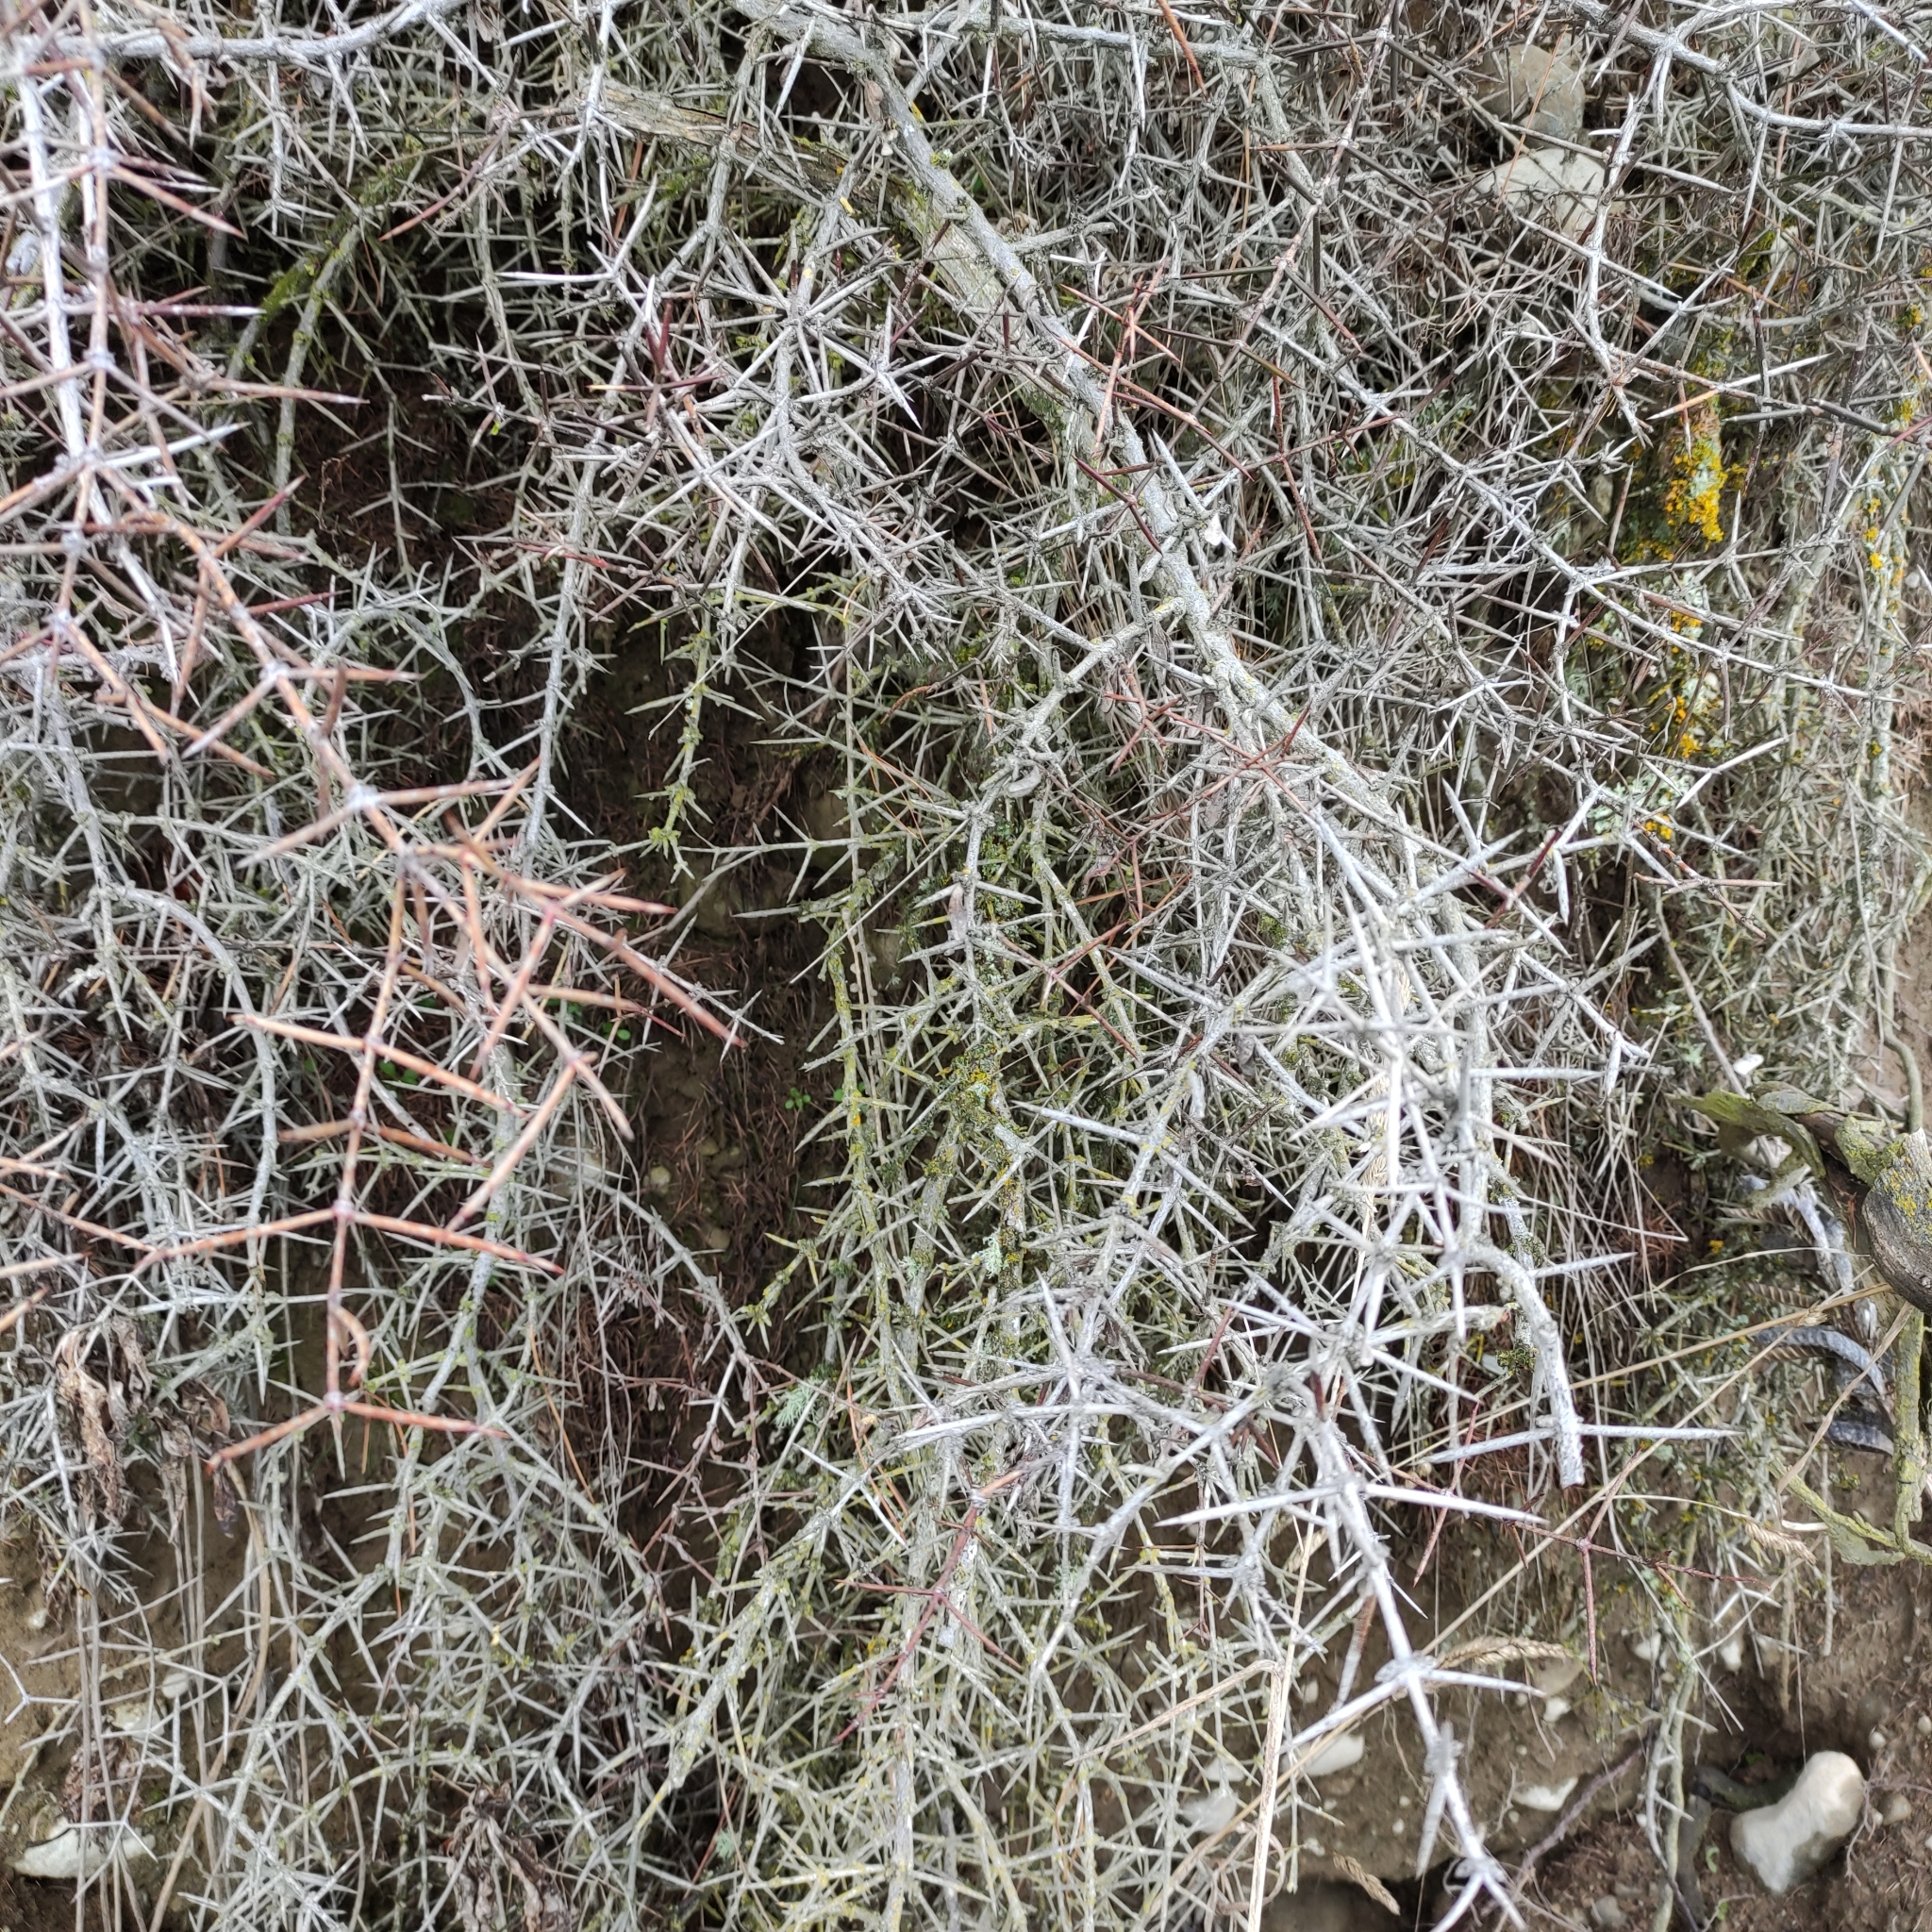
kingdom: Plantae
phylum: Tracheophyta
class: Magnoliopsida
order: Rosales
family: Rhamnaceae
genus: Discaria
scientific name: Discaria toumatou
